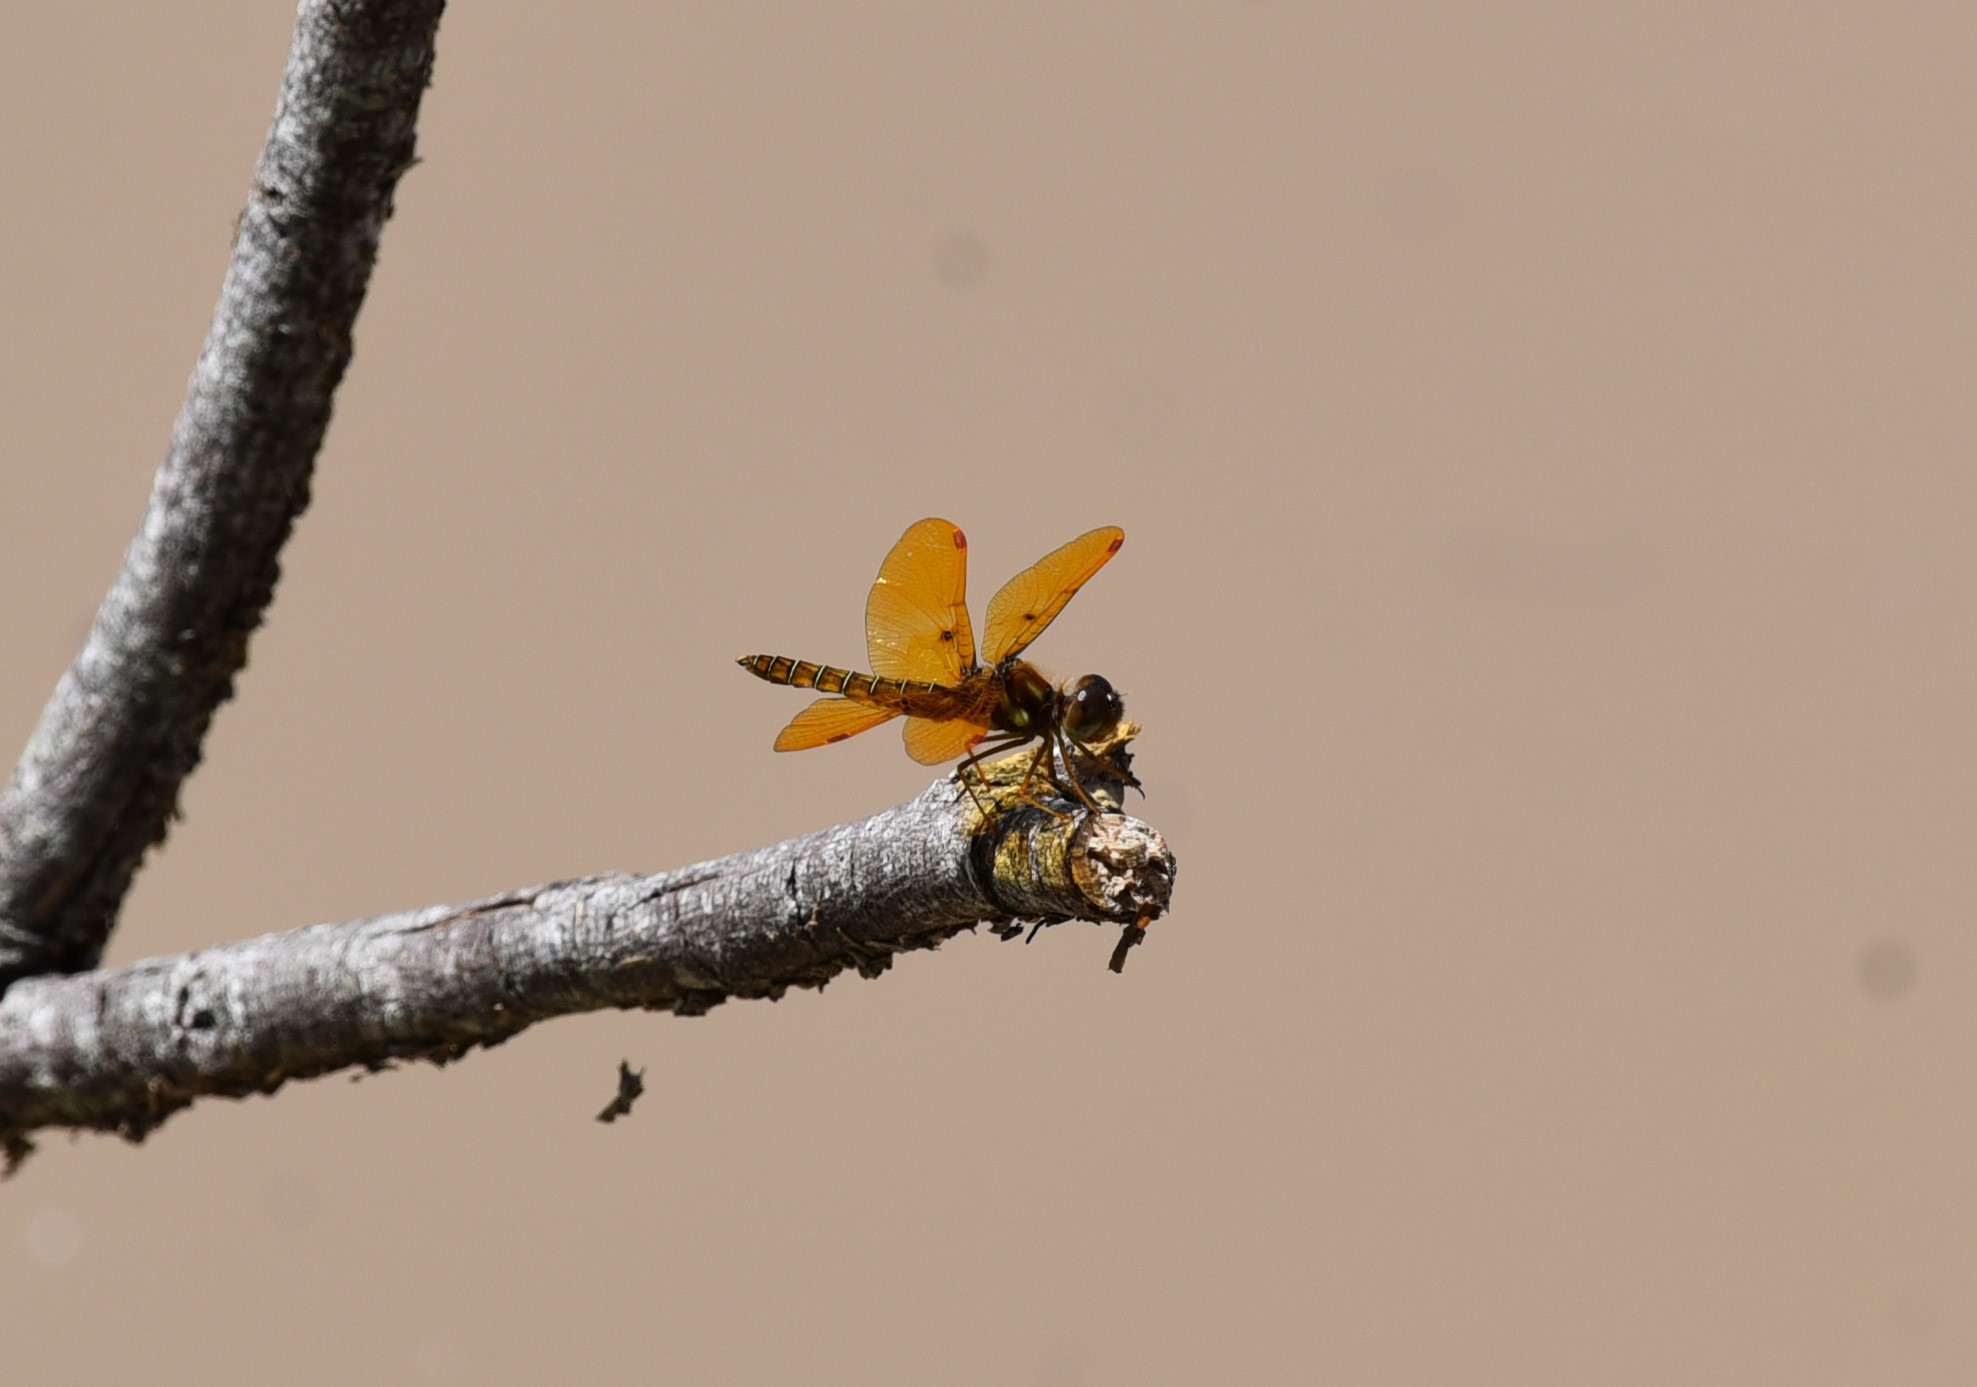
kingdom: Animalia
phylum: Arthropoda
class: Insecta
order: Odonata
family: Libellulidae
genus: Perithemis
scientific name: Perithemis tenera
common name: Eastern amberwing
